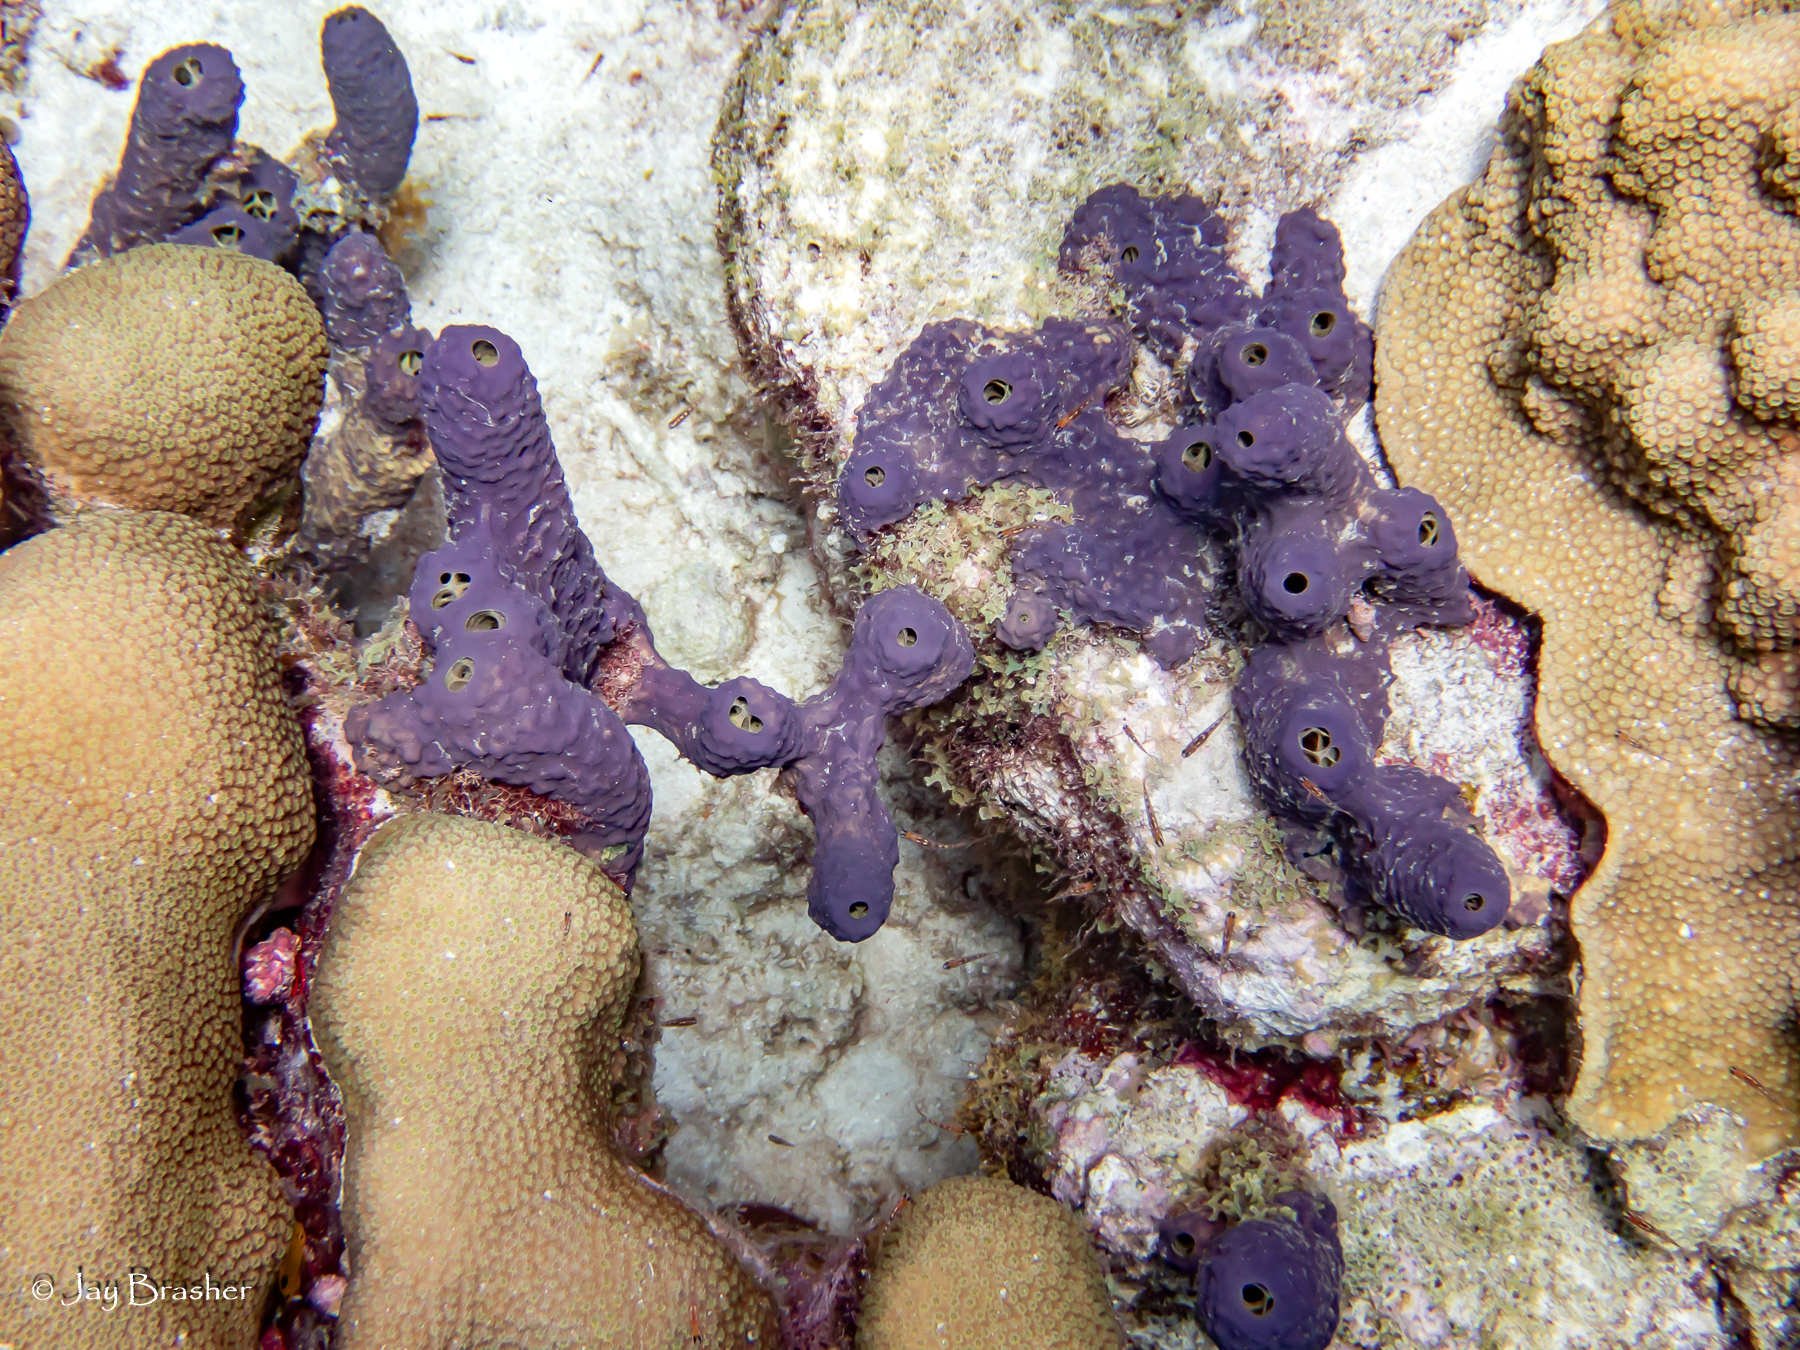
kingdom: Animalia
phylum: Porifera
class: Demospongiae
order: Verongiida
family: Aplysinidae
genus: Aiolochroia
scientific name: Aiolochroia crassa
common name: Branching tube sponge
